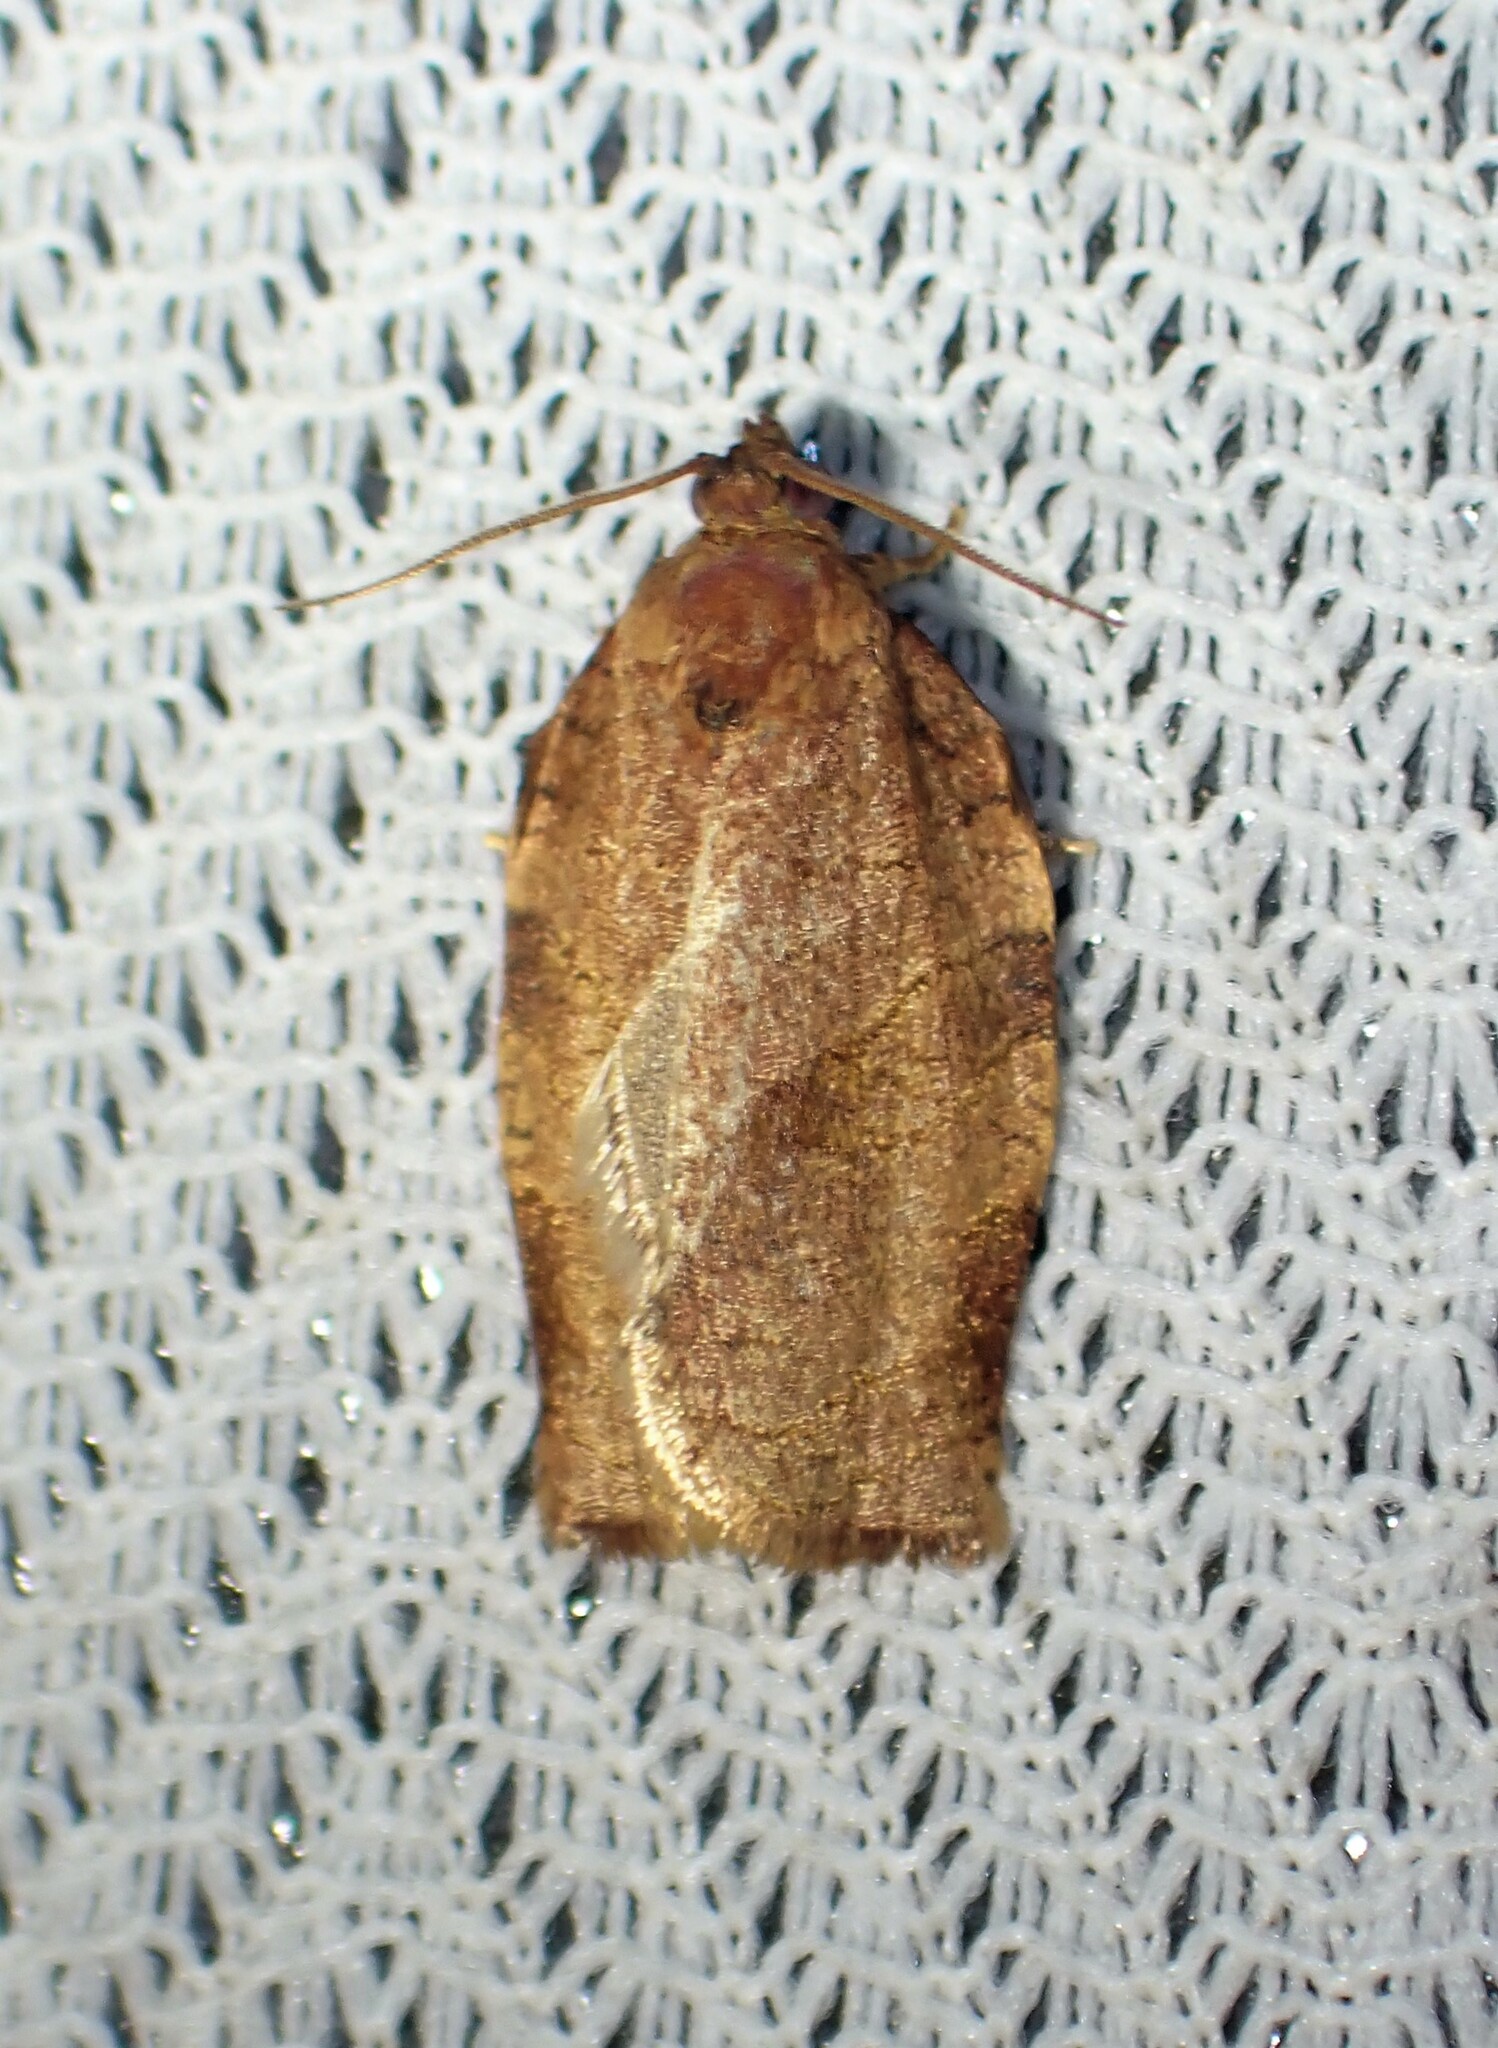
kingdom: Animalia
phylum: Arthropoda
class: Insecta
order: Lepidoptera
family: Tortricidae
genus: Choristoneura
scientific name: Choristoneura rosaceana
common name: Oblique-banded leafroller moth
